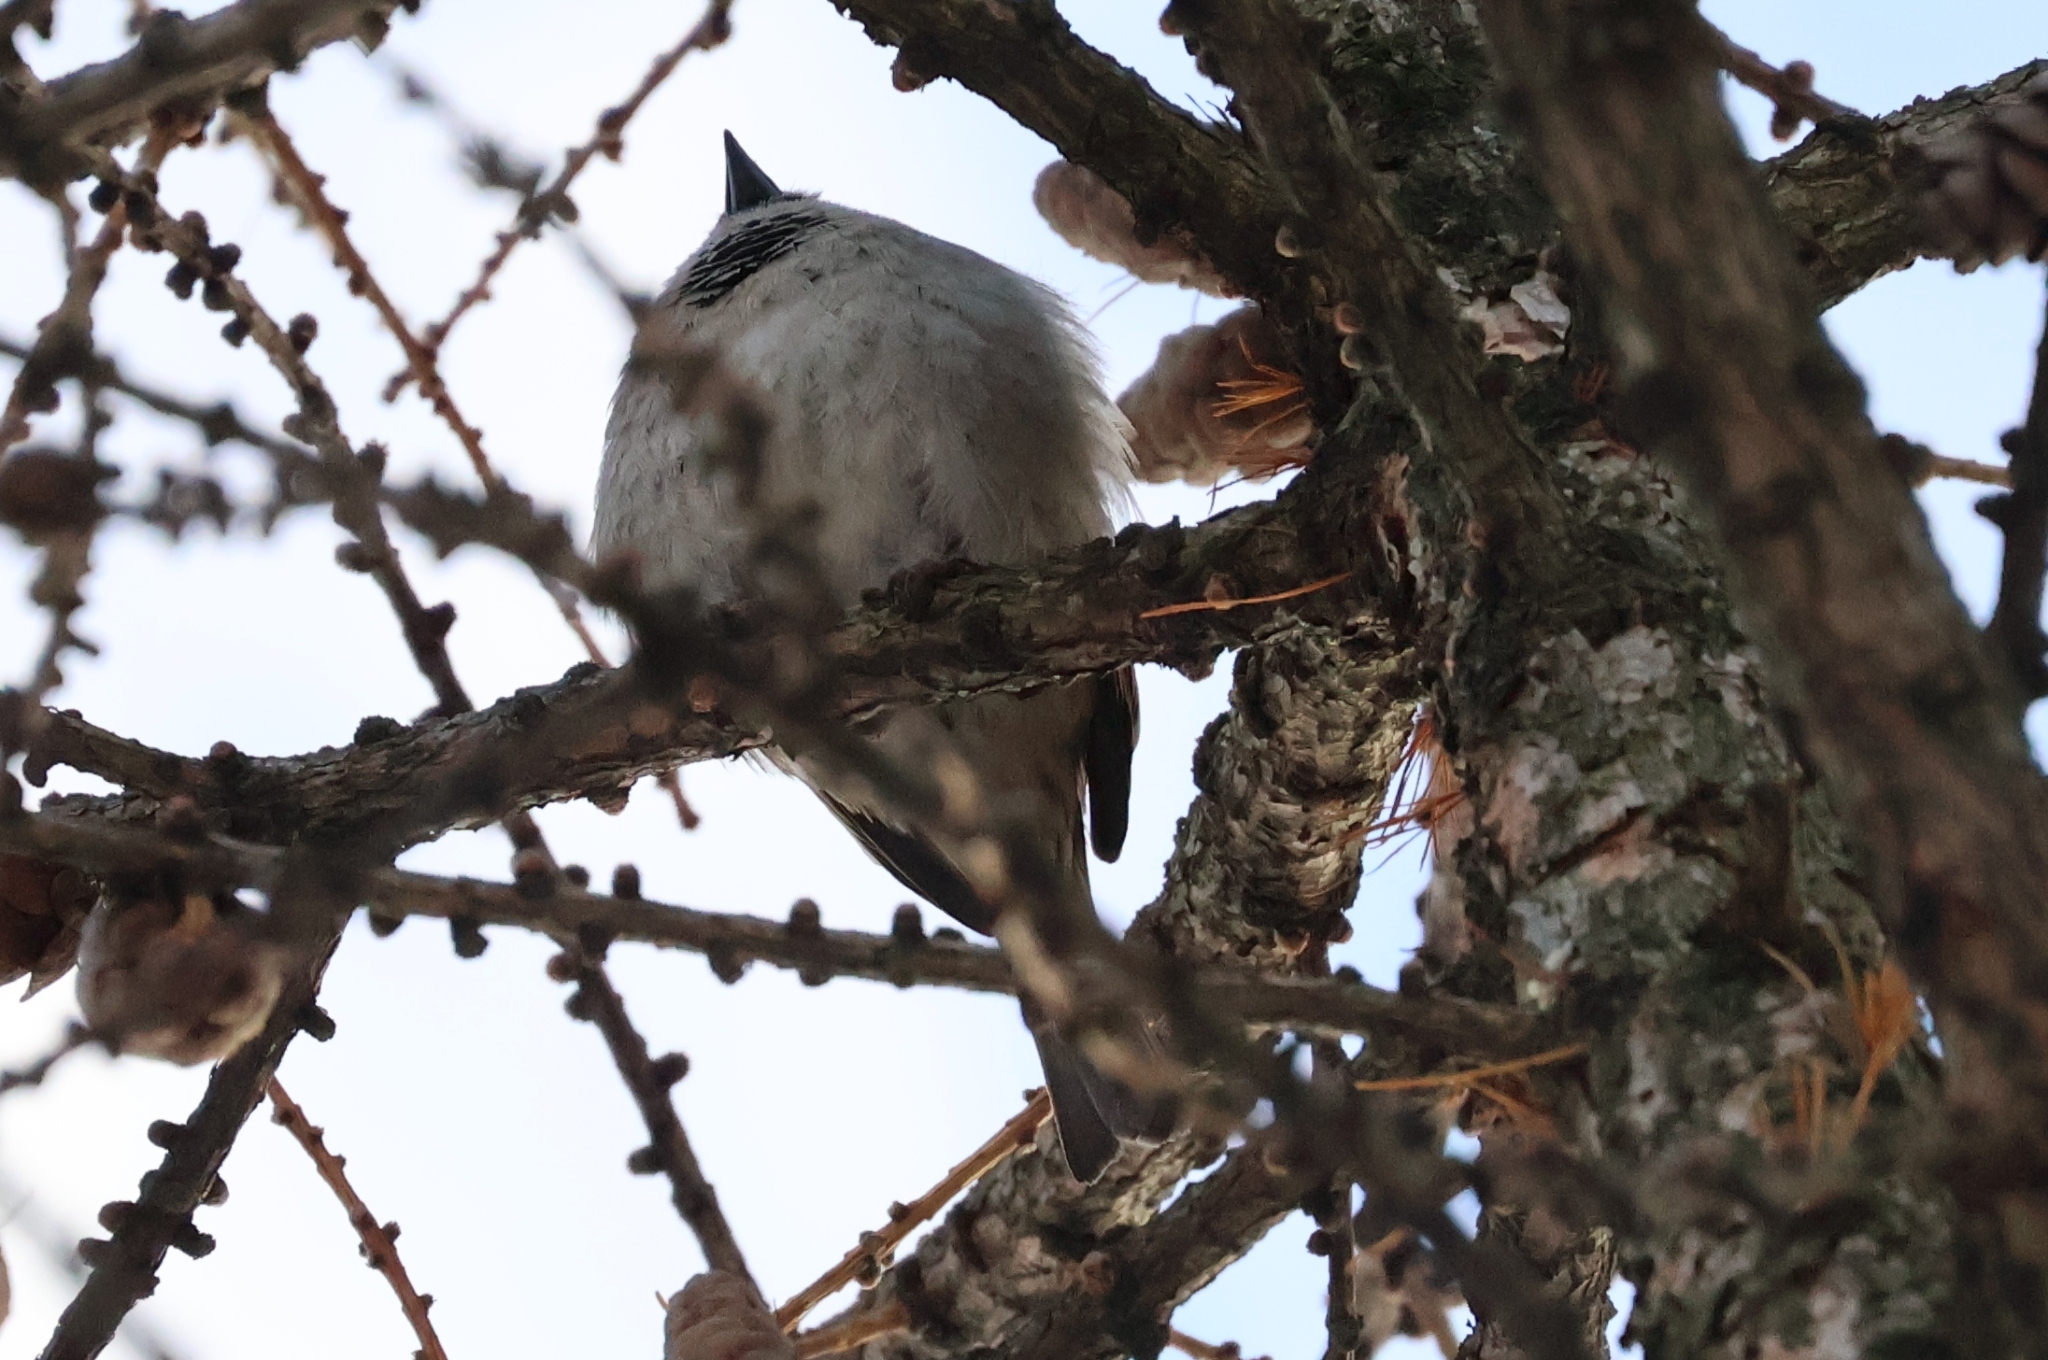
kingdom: Animalia
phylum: Chordata
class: Aves
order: Passeriformes
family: Passeridae
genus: Passer
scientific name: Passer domesticus
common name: House sparrow
